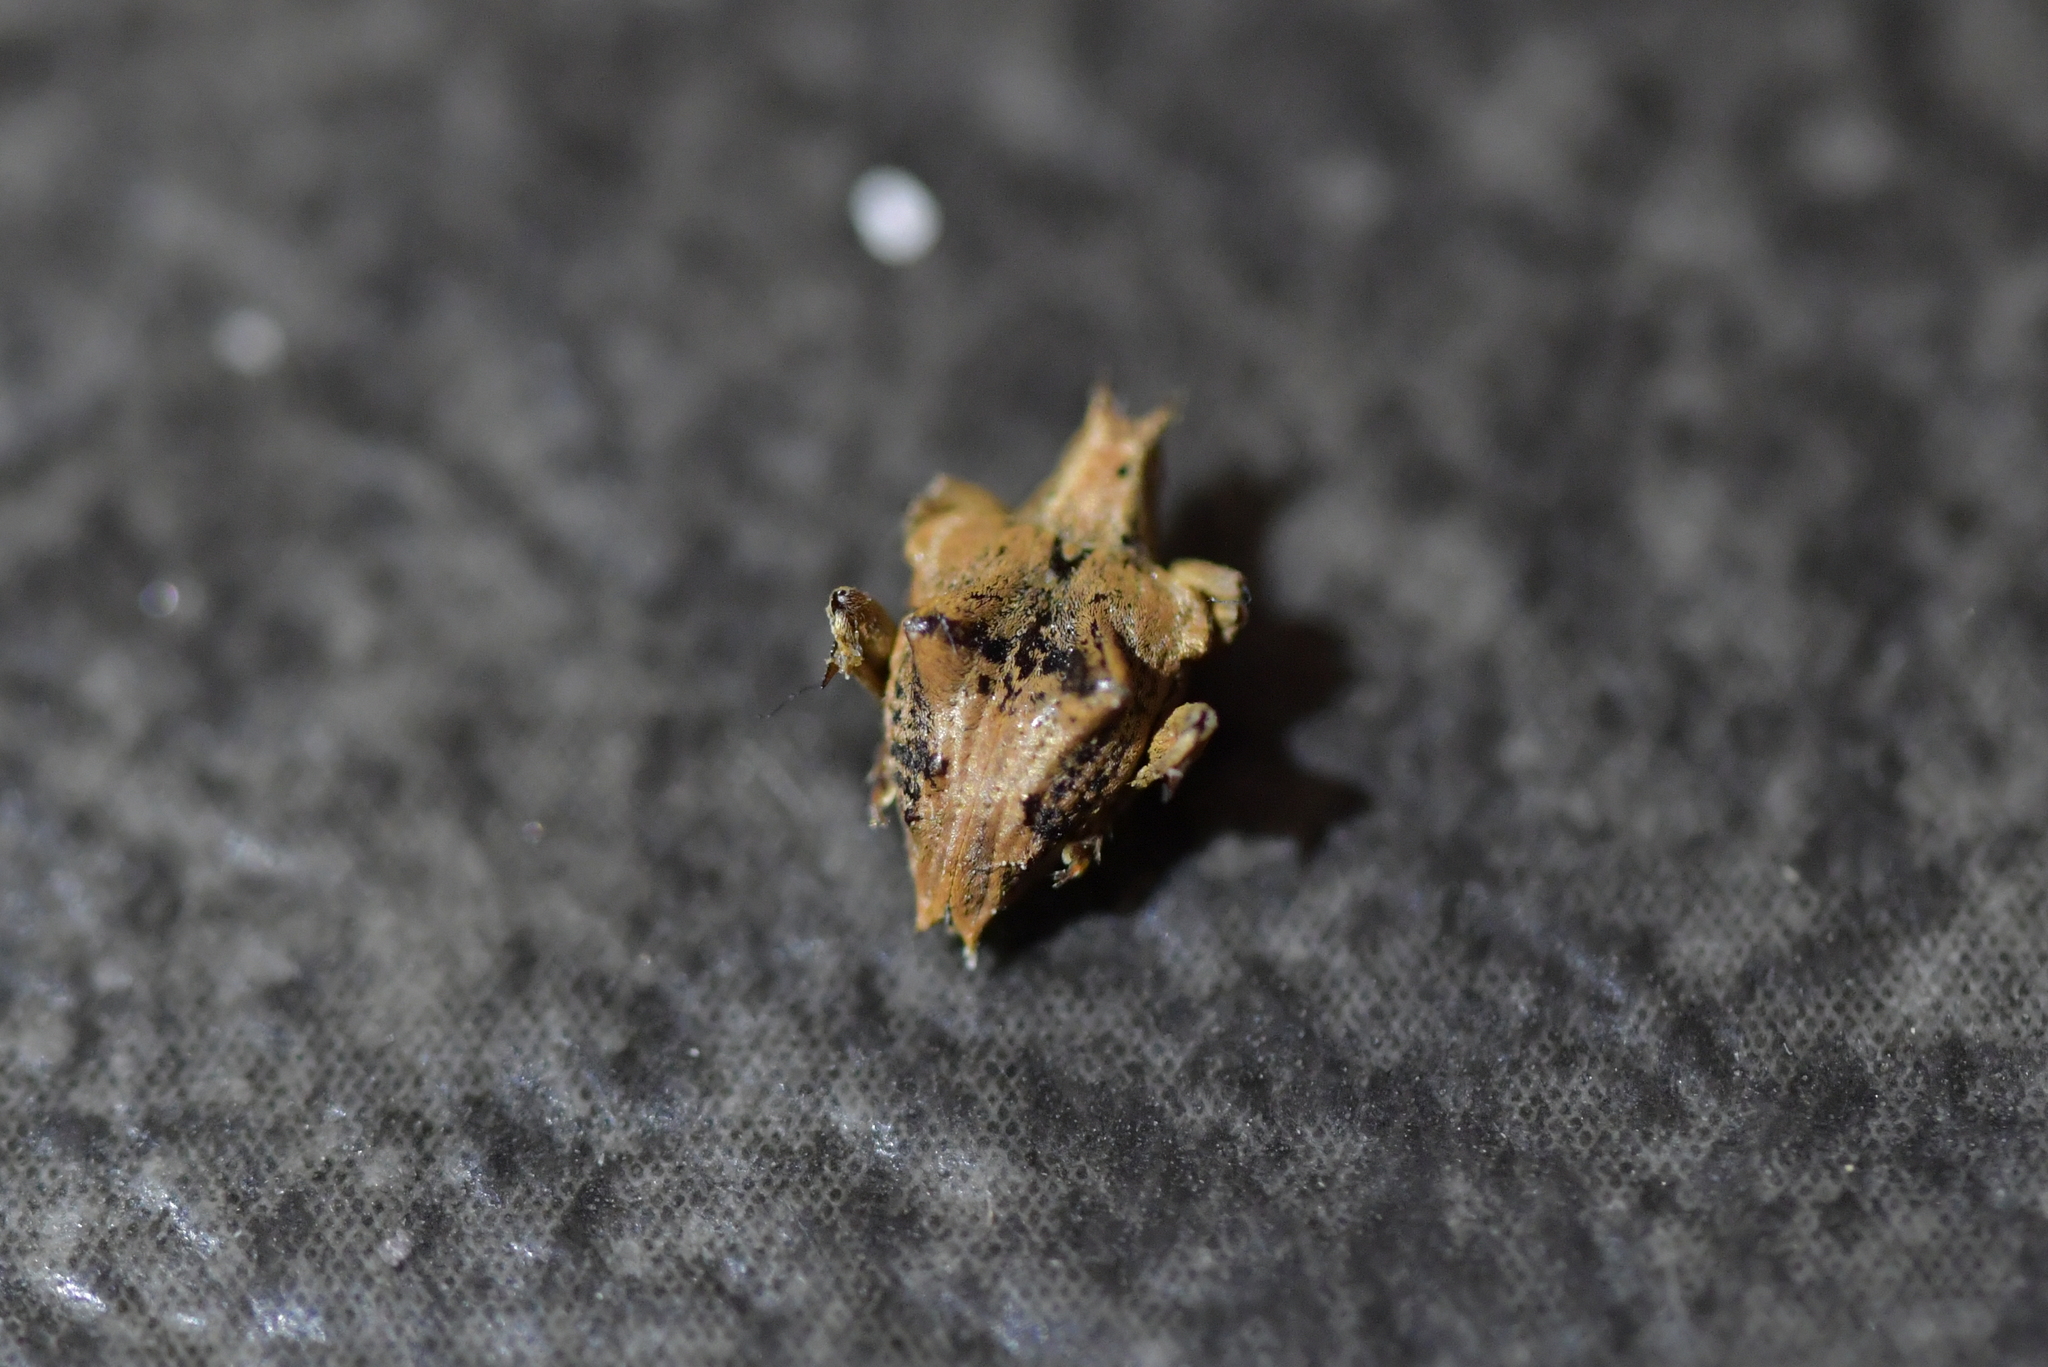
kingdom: Animalia
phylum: Arthropoda
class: Insecta
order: Coleoptera
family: Curculionidae
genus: Gonoropterus
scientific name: Gonoropterus spinicollis
